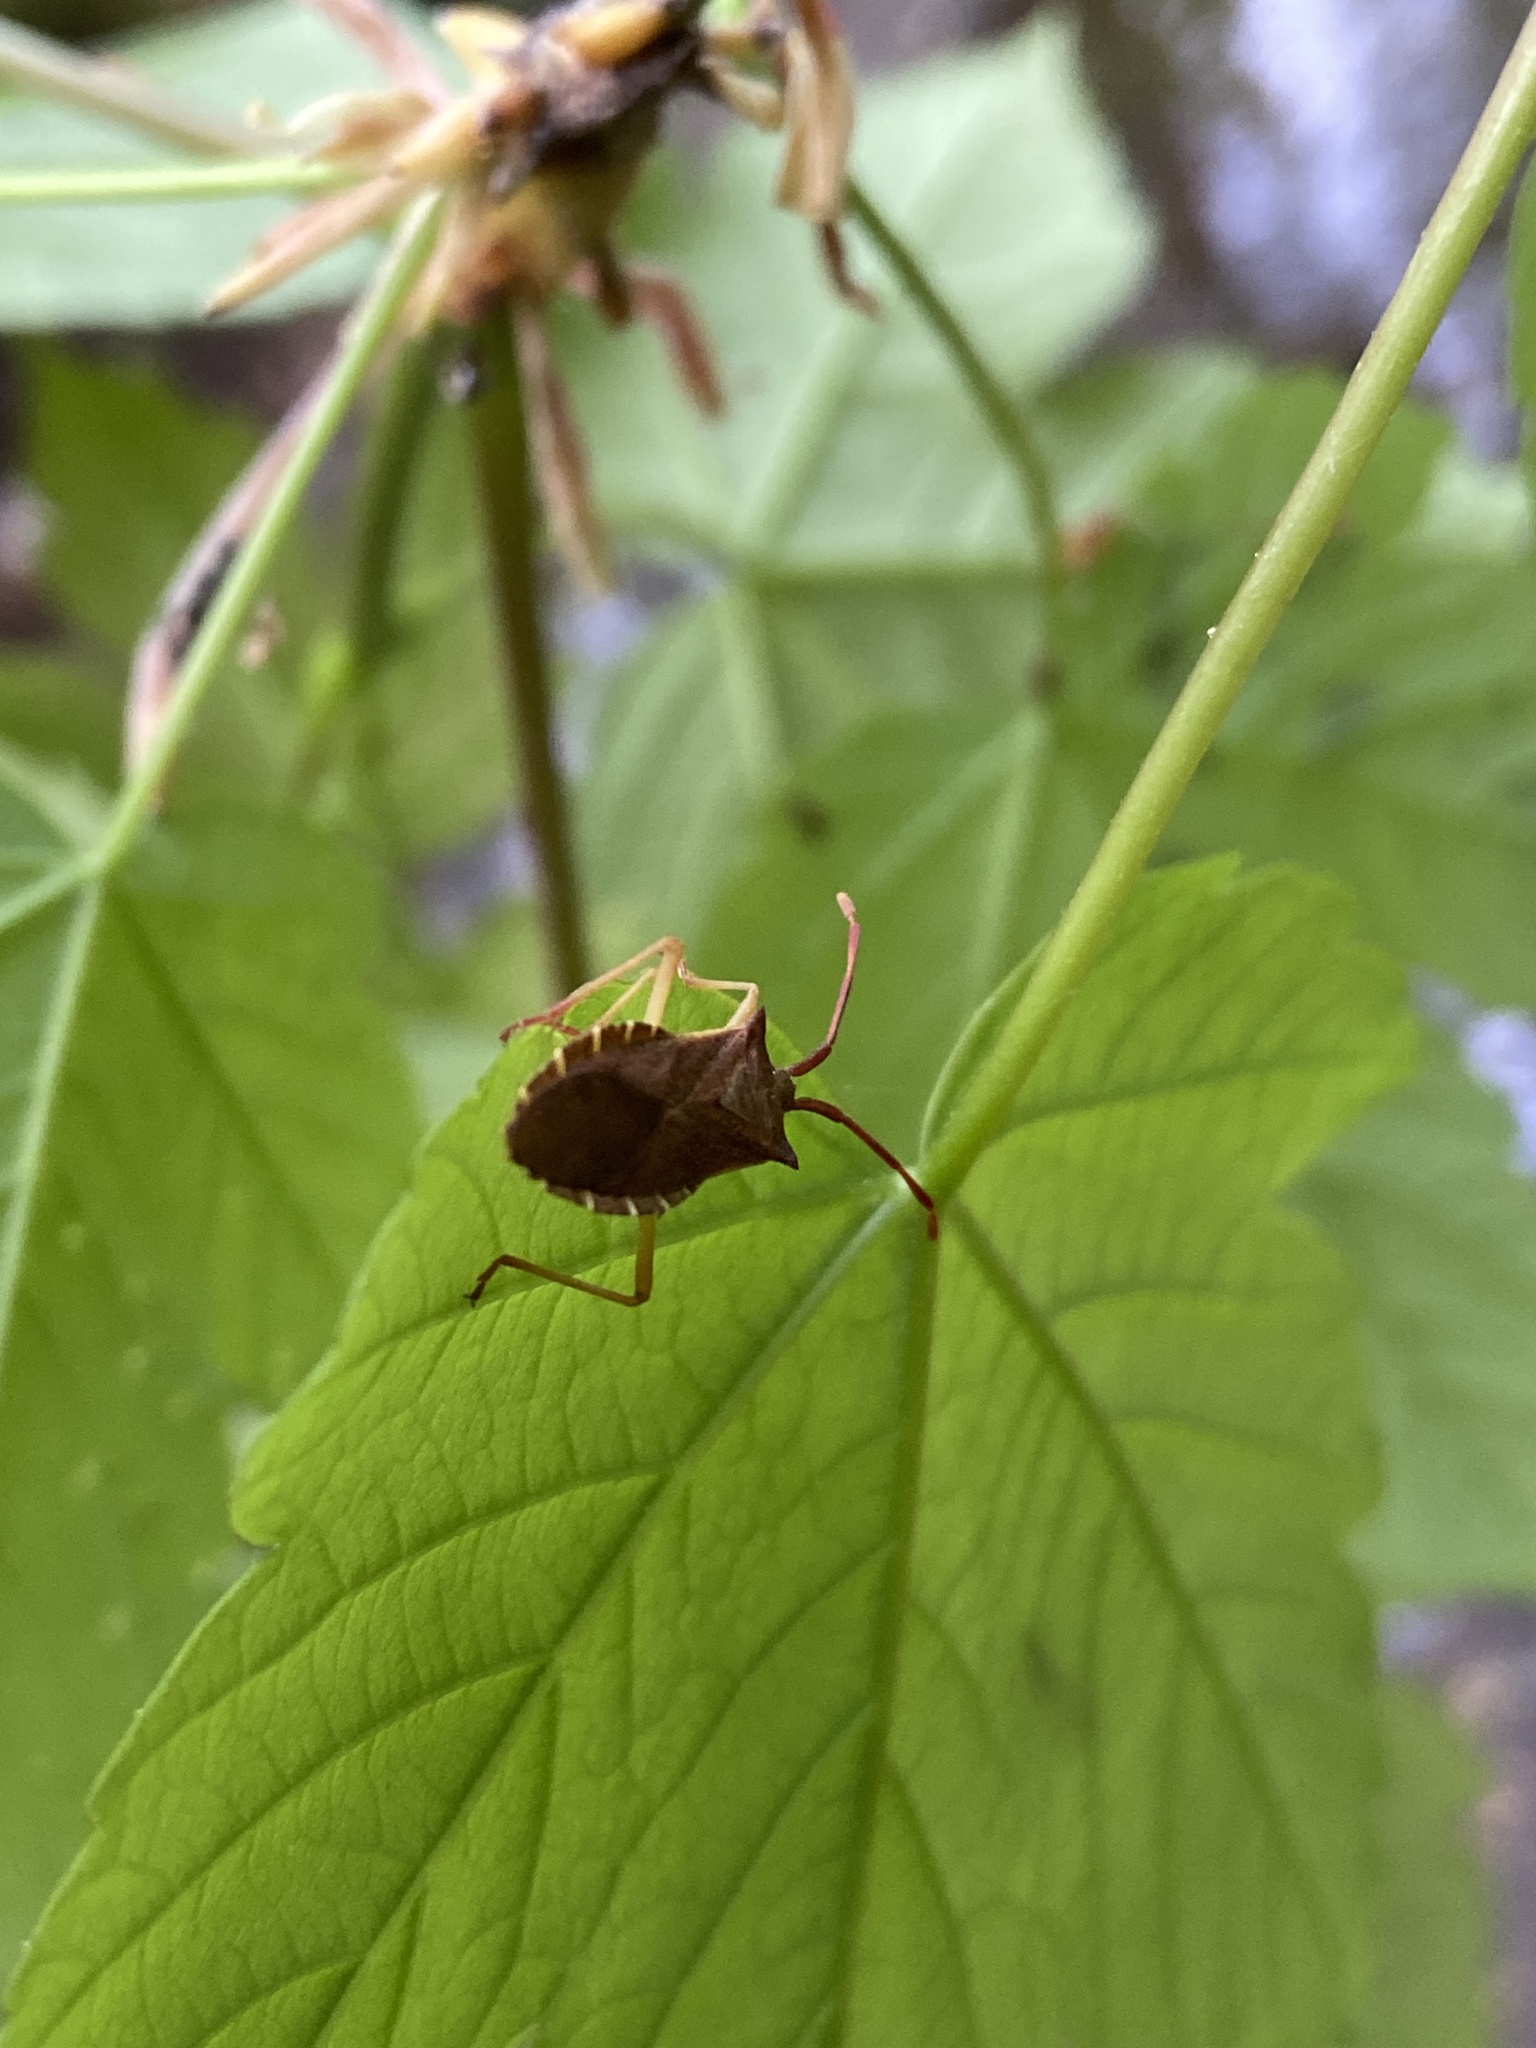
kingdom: Animalia
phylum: Arthropoda
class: Insecta
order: Hemiptera
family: Coreidae
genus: Coreus
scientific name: Coreus marginatus
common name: Dock bug
